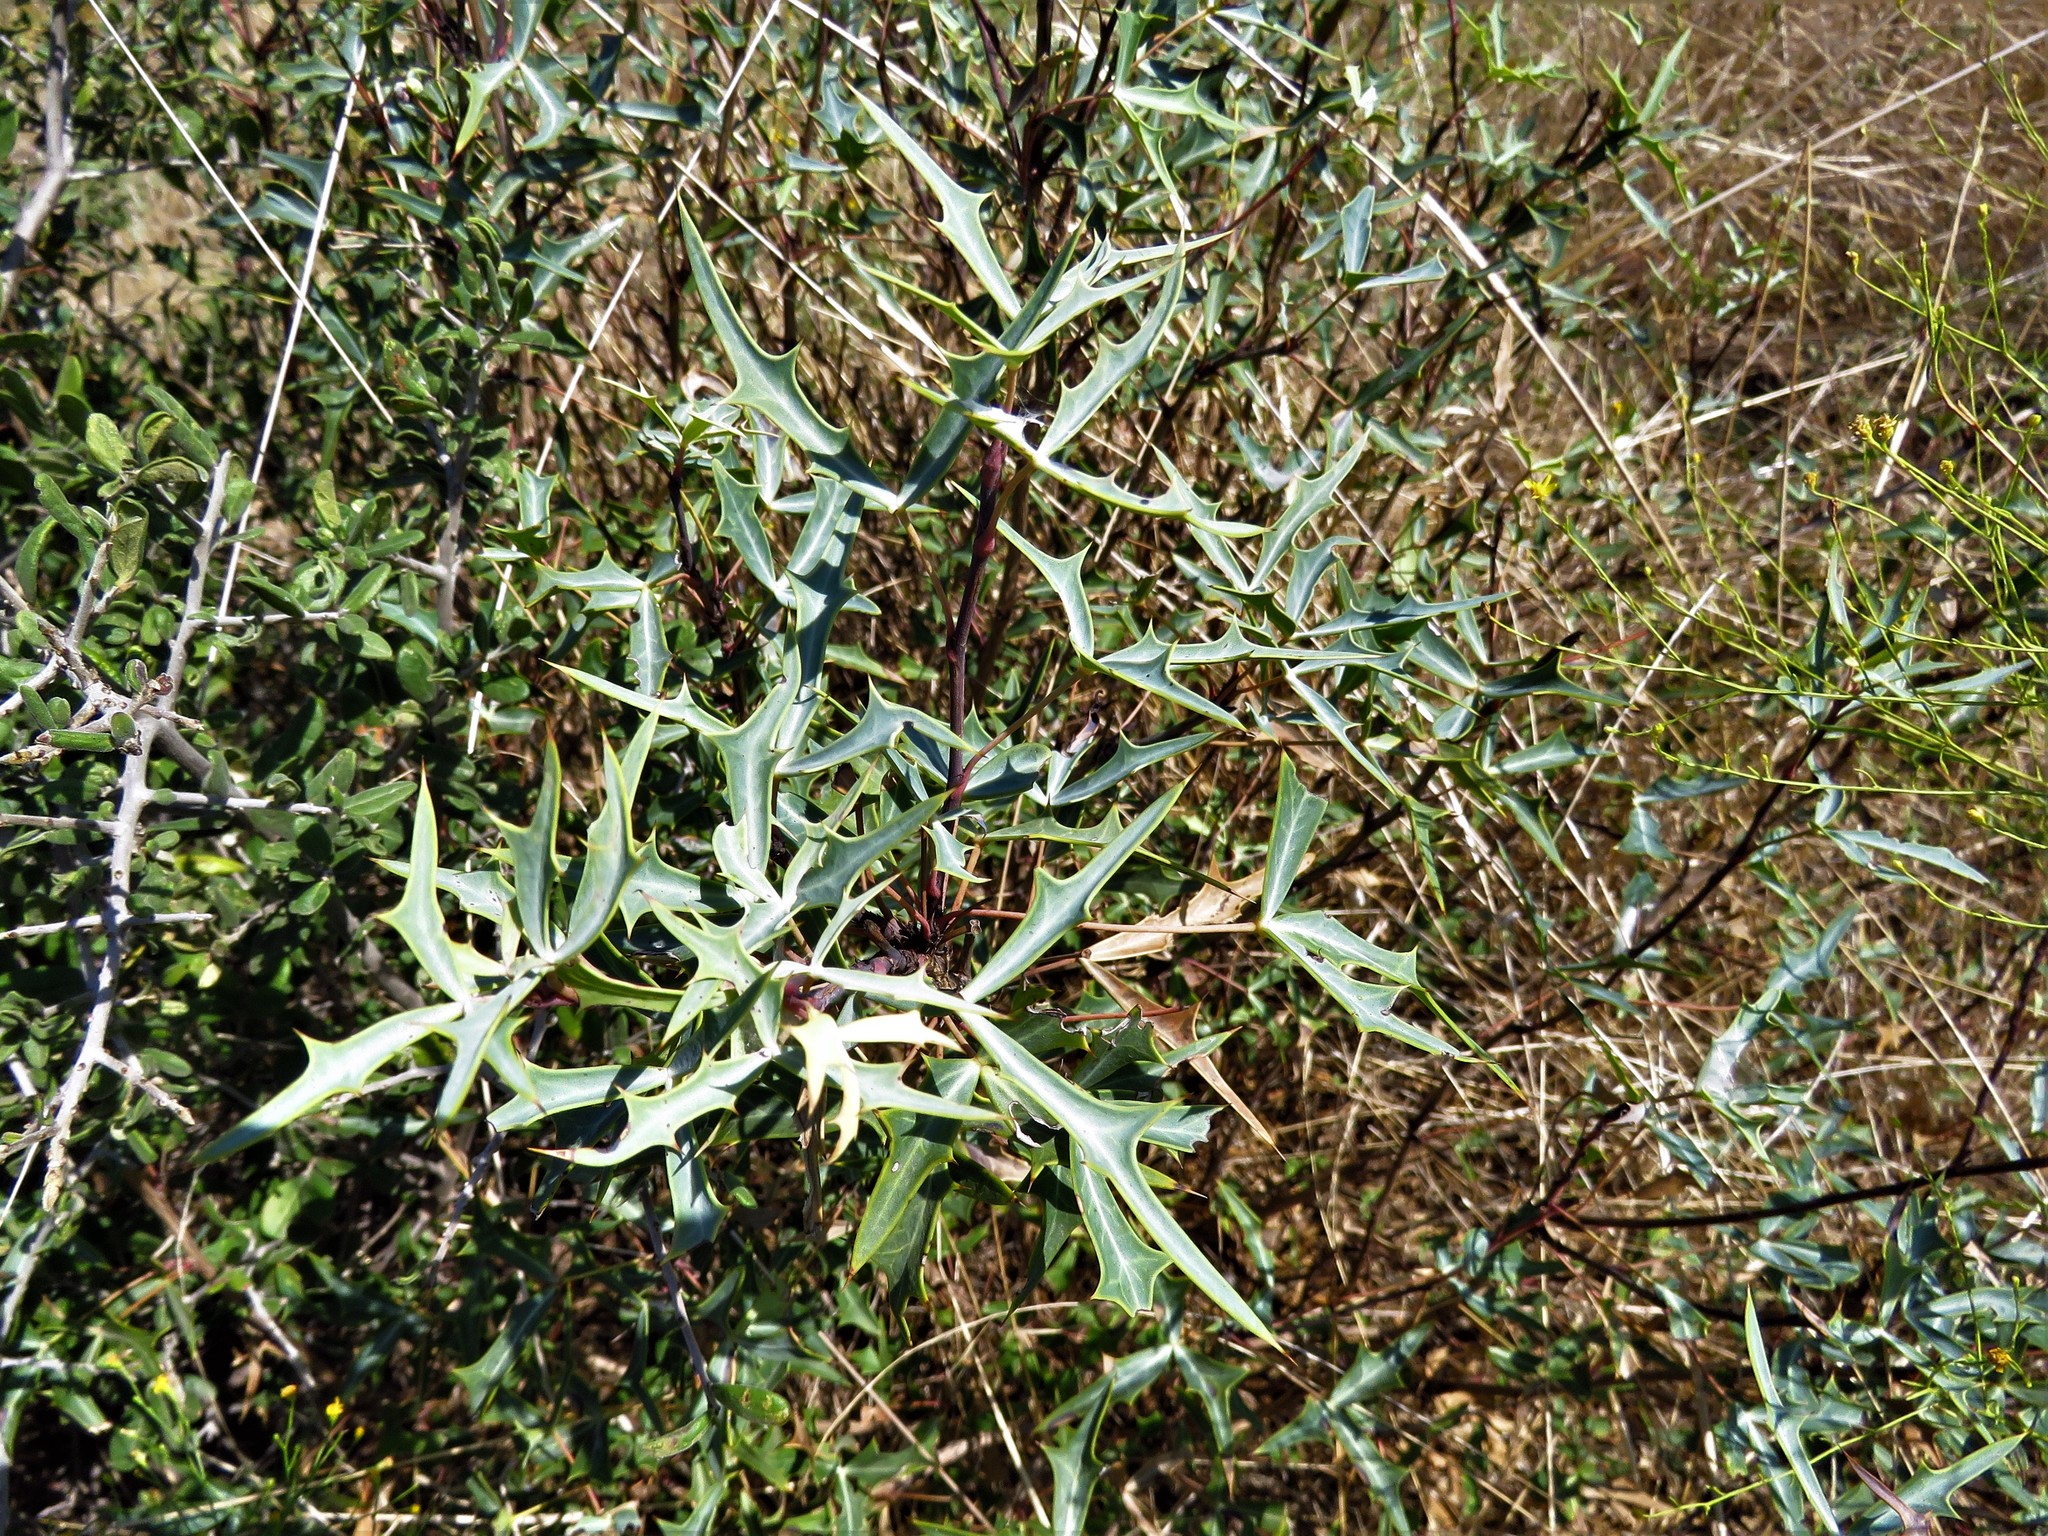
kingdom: Plantae
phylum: Tracheophyta
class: Magnoliopsida
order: Ranunculales
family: Berberidaceae
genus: Alloberberis
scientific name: Alloberberis trifoliolata
